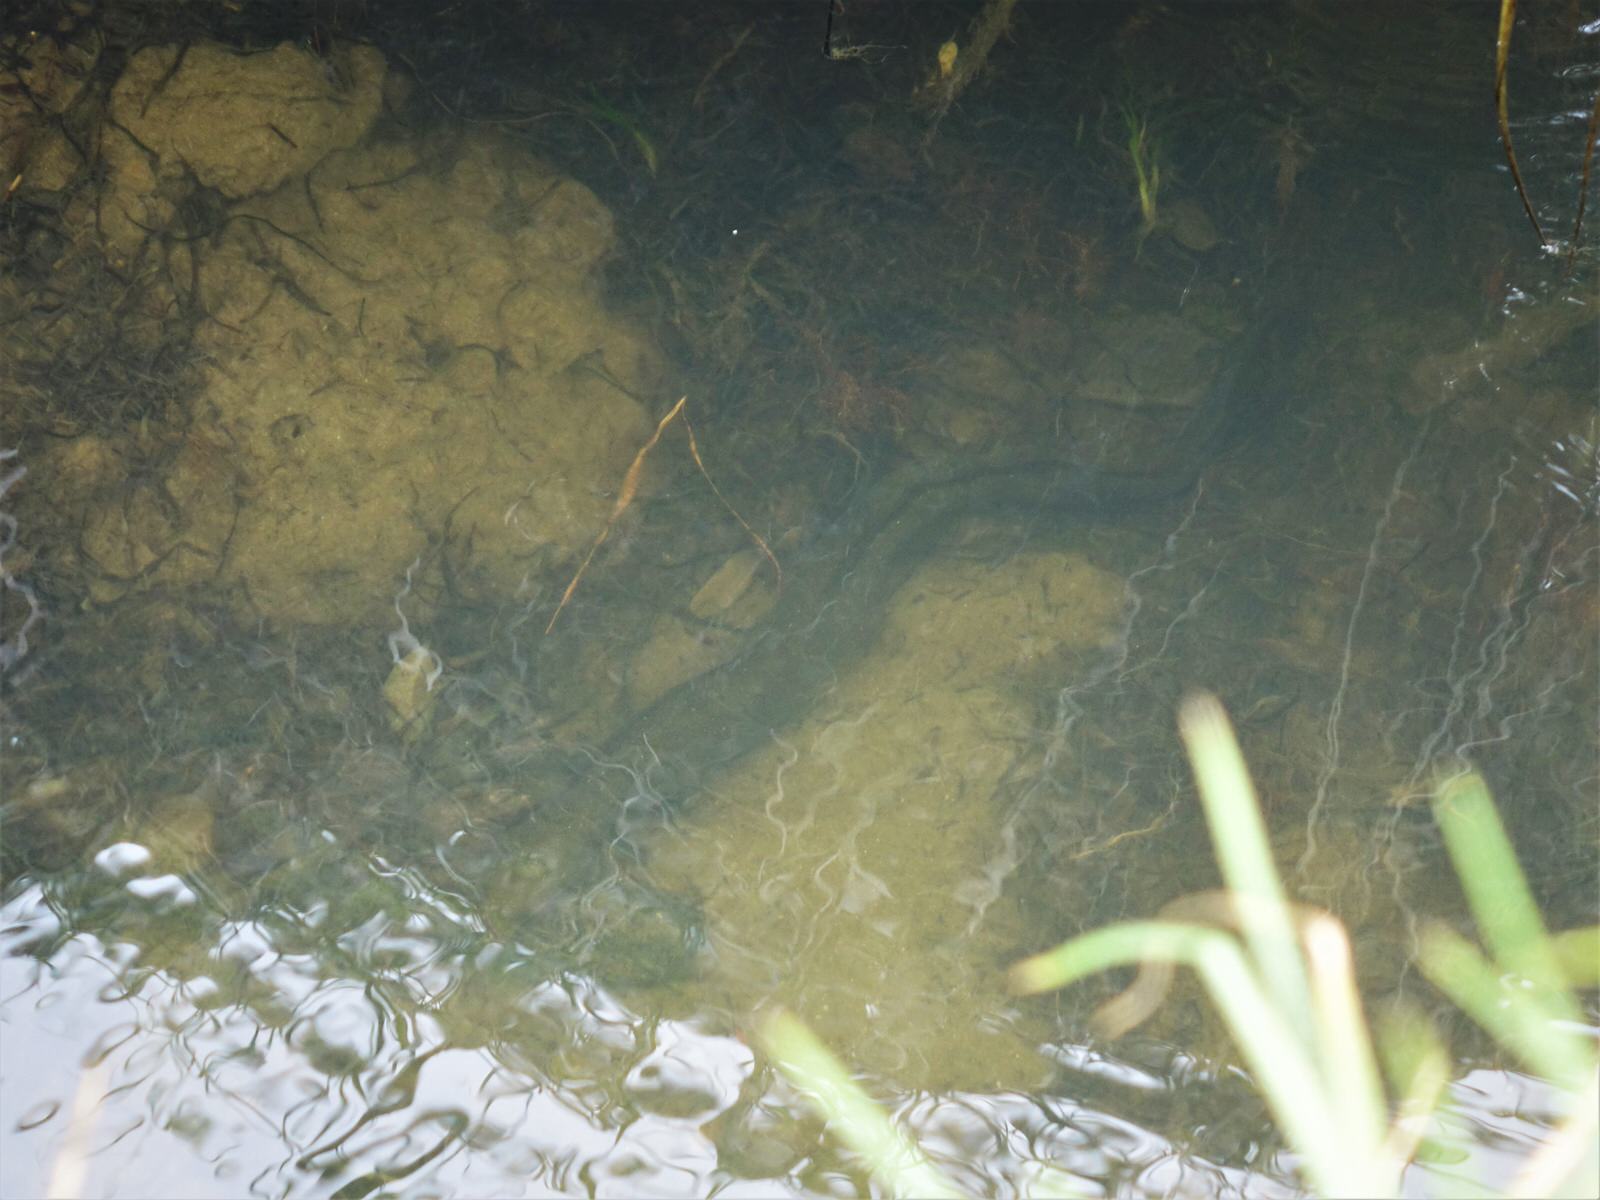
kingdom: Animalia
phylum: Chordata
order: Anguilliformes
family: Anguillidae
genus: Anguilla
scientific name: Anguilla australis
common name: Shortfin eel
